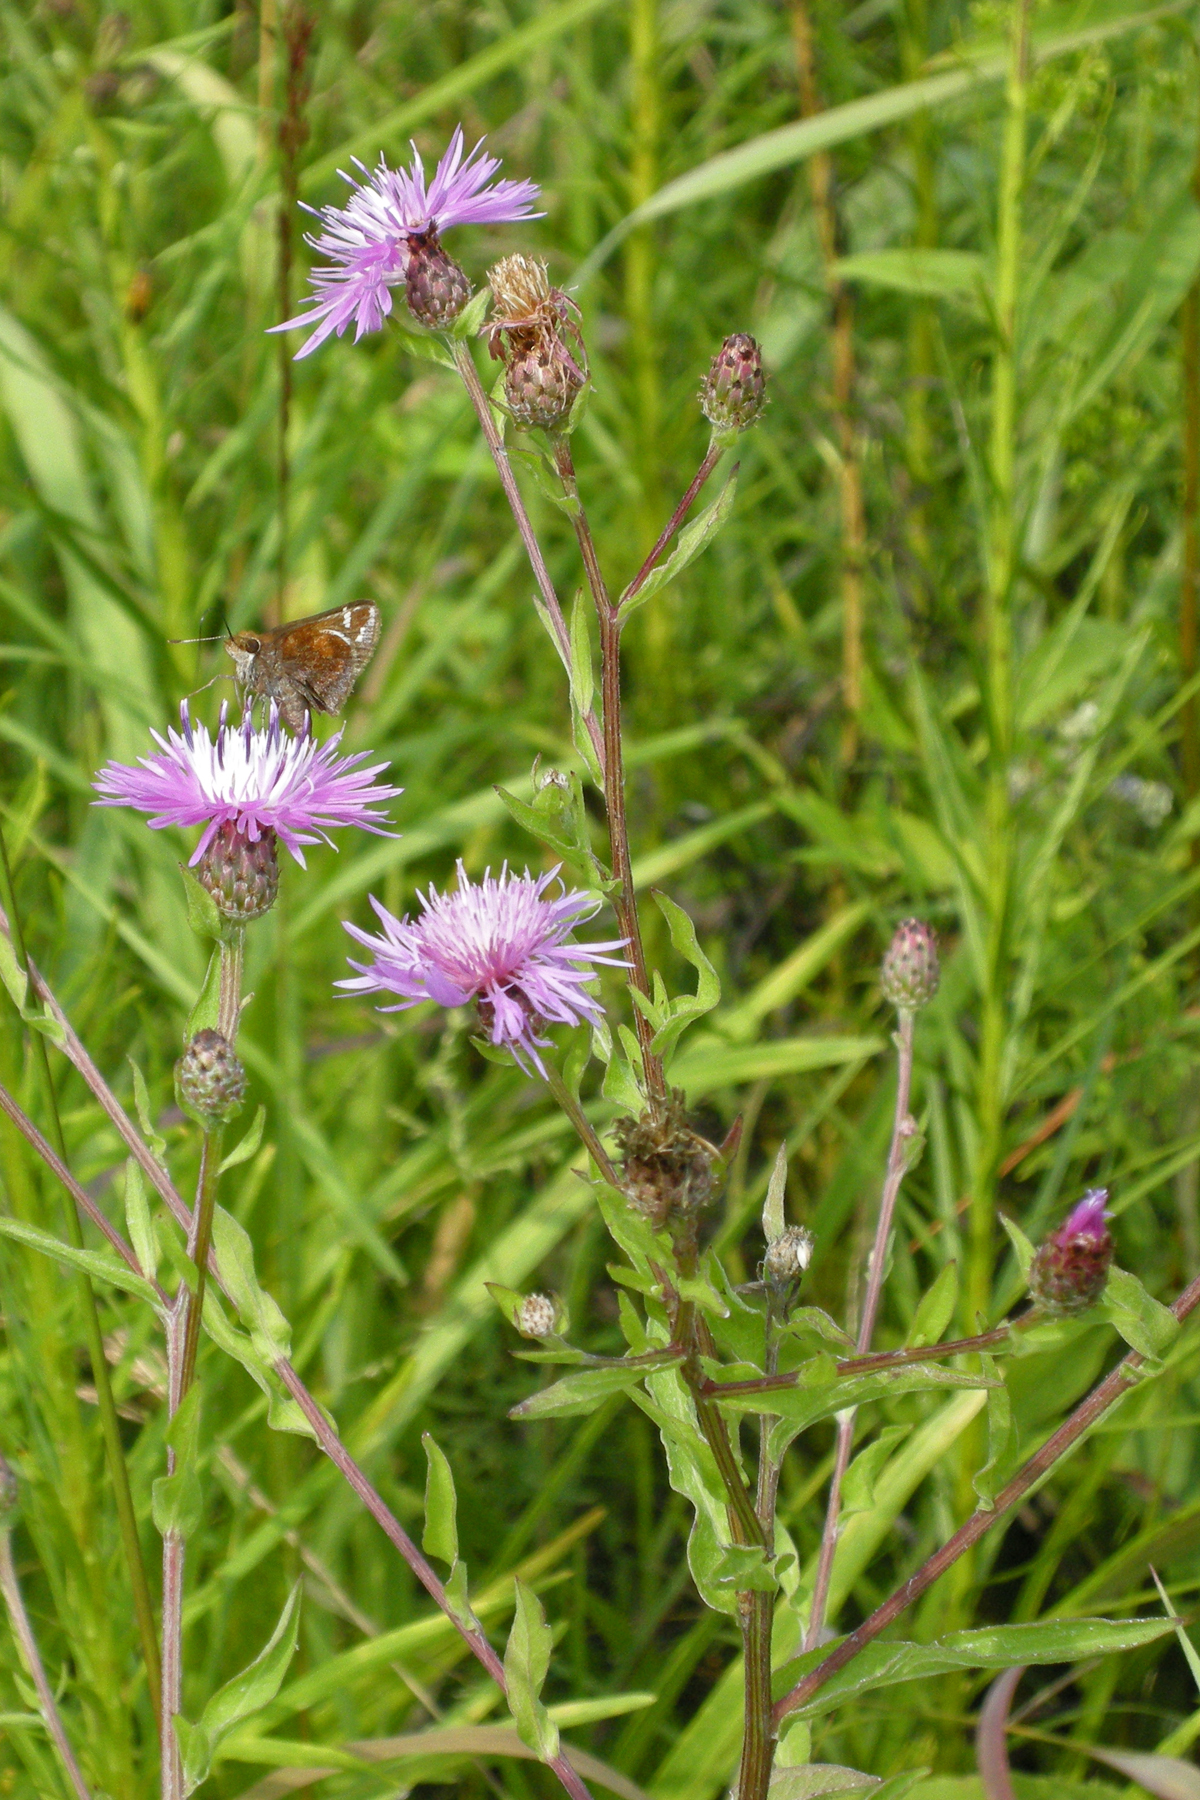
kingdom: Plantae
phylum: Tracheophyta
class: Magnoliopsida
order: Asterales
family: Asteraceae
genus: Centaurea
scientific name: Centaurea nigrescens
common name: Tyrol knapweed
